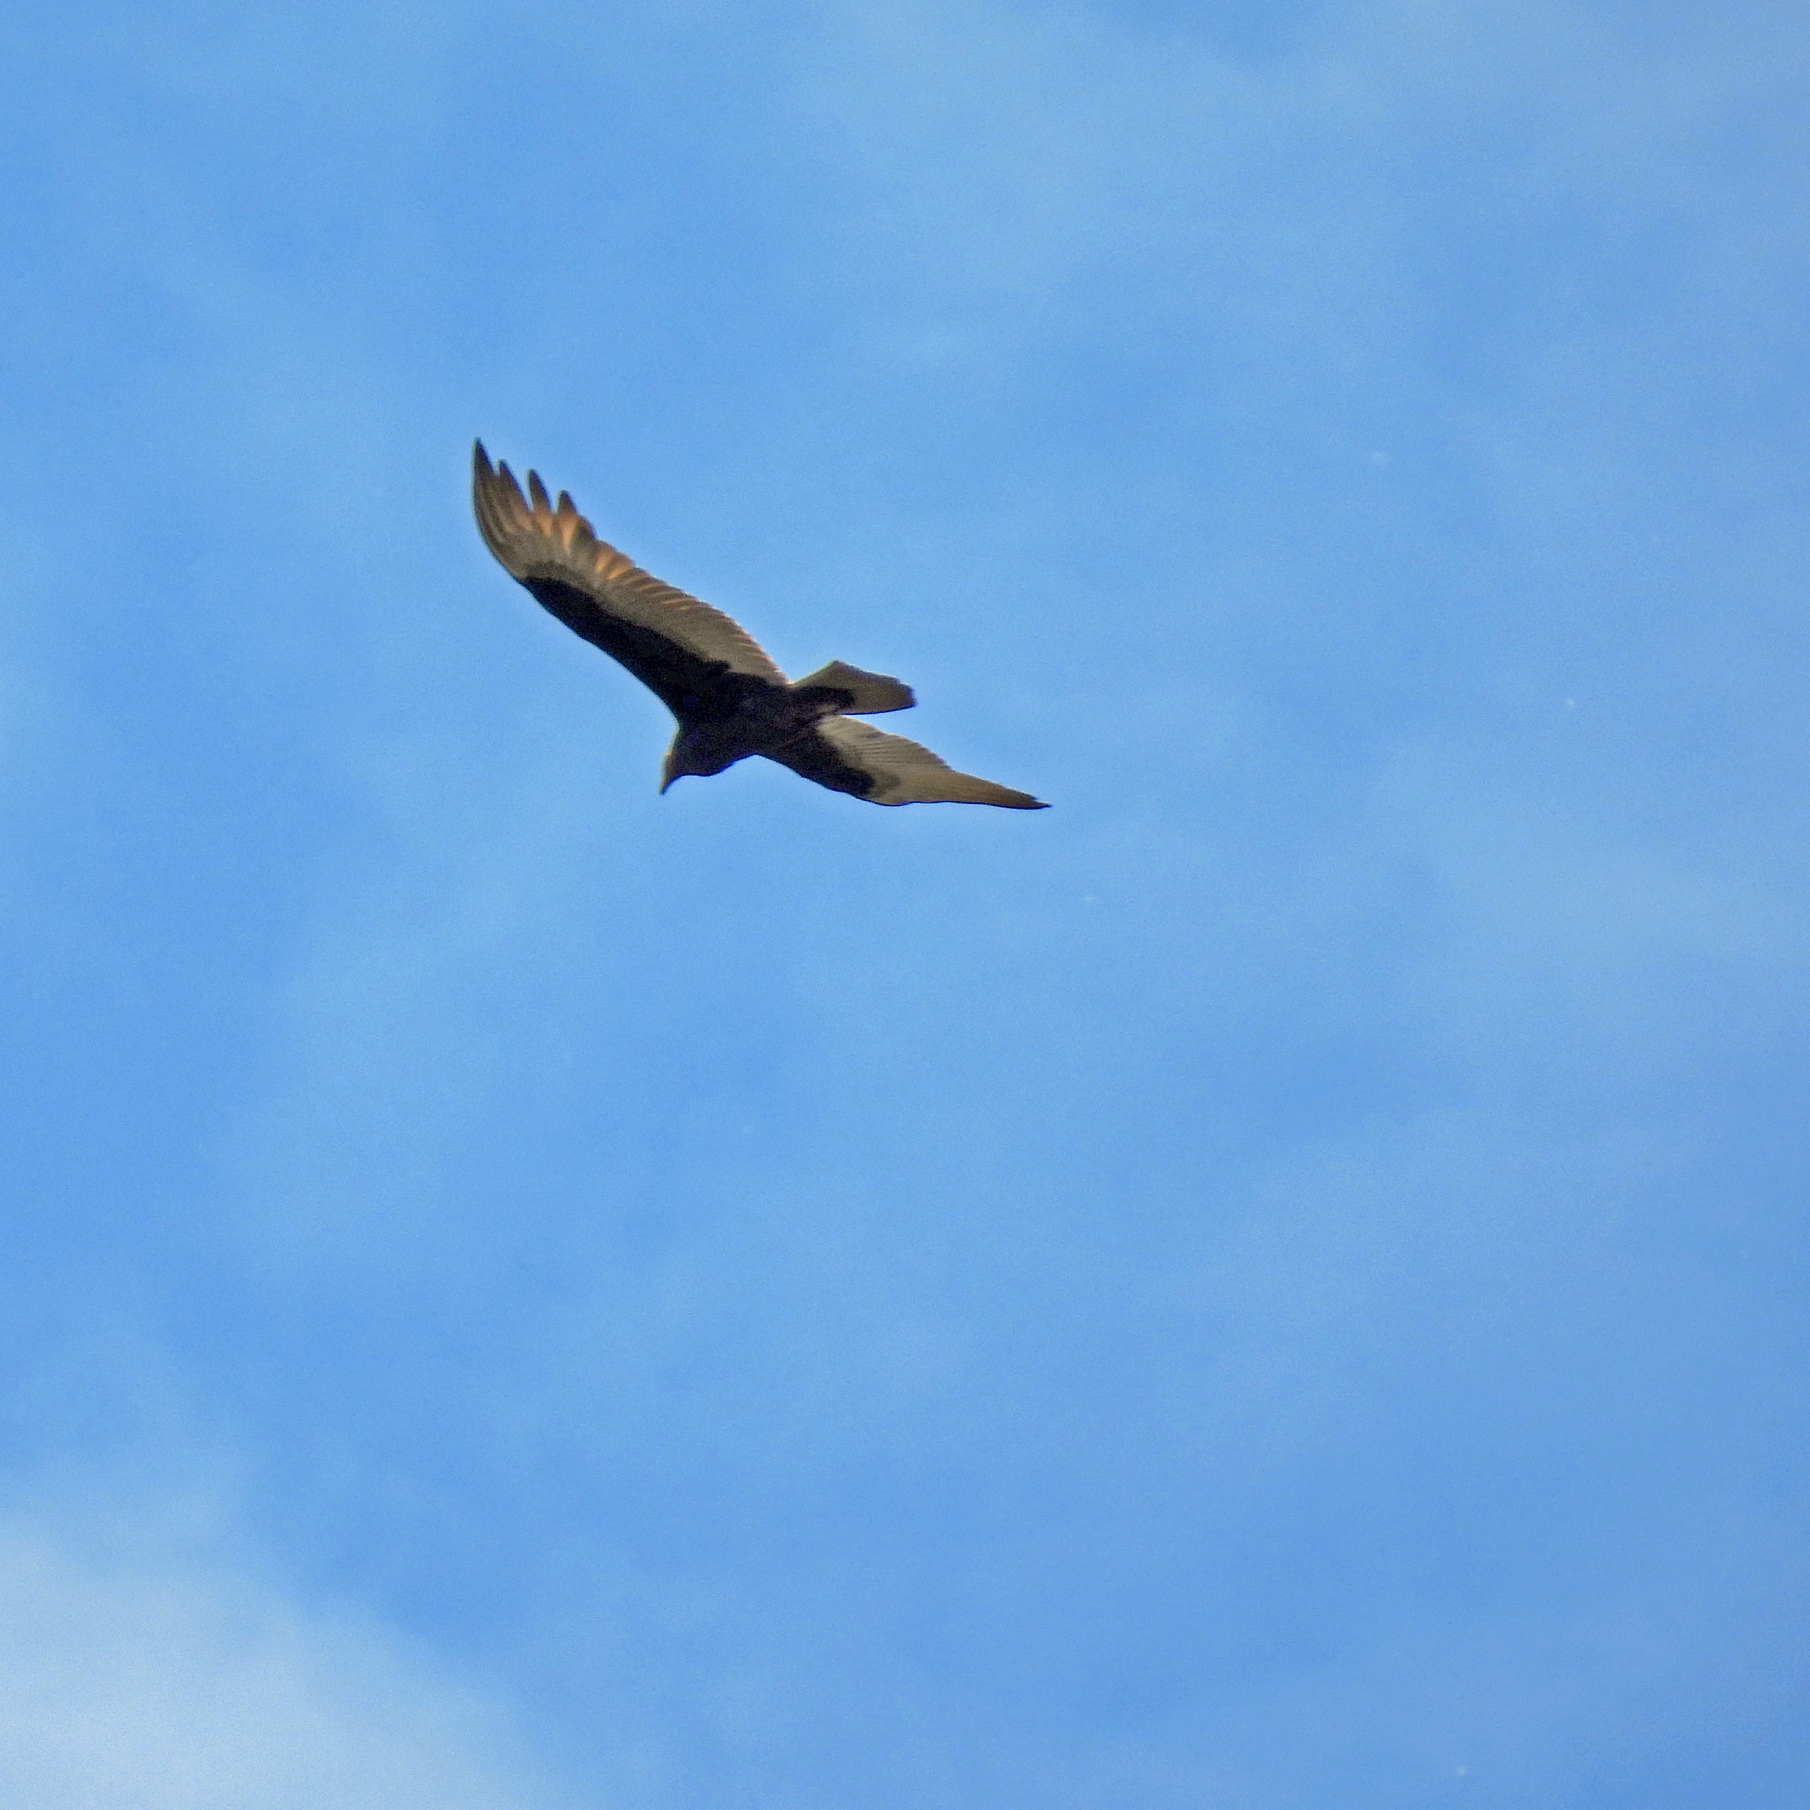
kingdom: Animalia
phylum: Chordata
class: Aves
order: Accipitriformes
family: Cathartidae
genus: Cathartes
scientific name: Cathartes aura
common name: Turkey vulture
